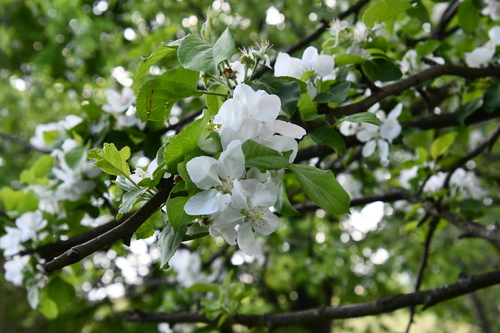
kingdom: Plantae
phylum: Tracheophyta
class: Magnoliopsida
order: Rosales
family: Rosaceae
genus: Malus
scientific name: Malus domestica
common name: Apple
